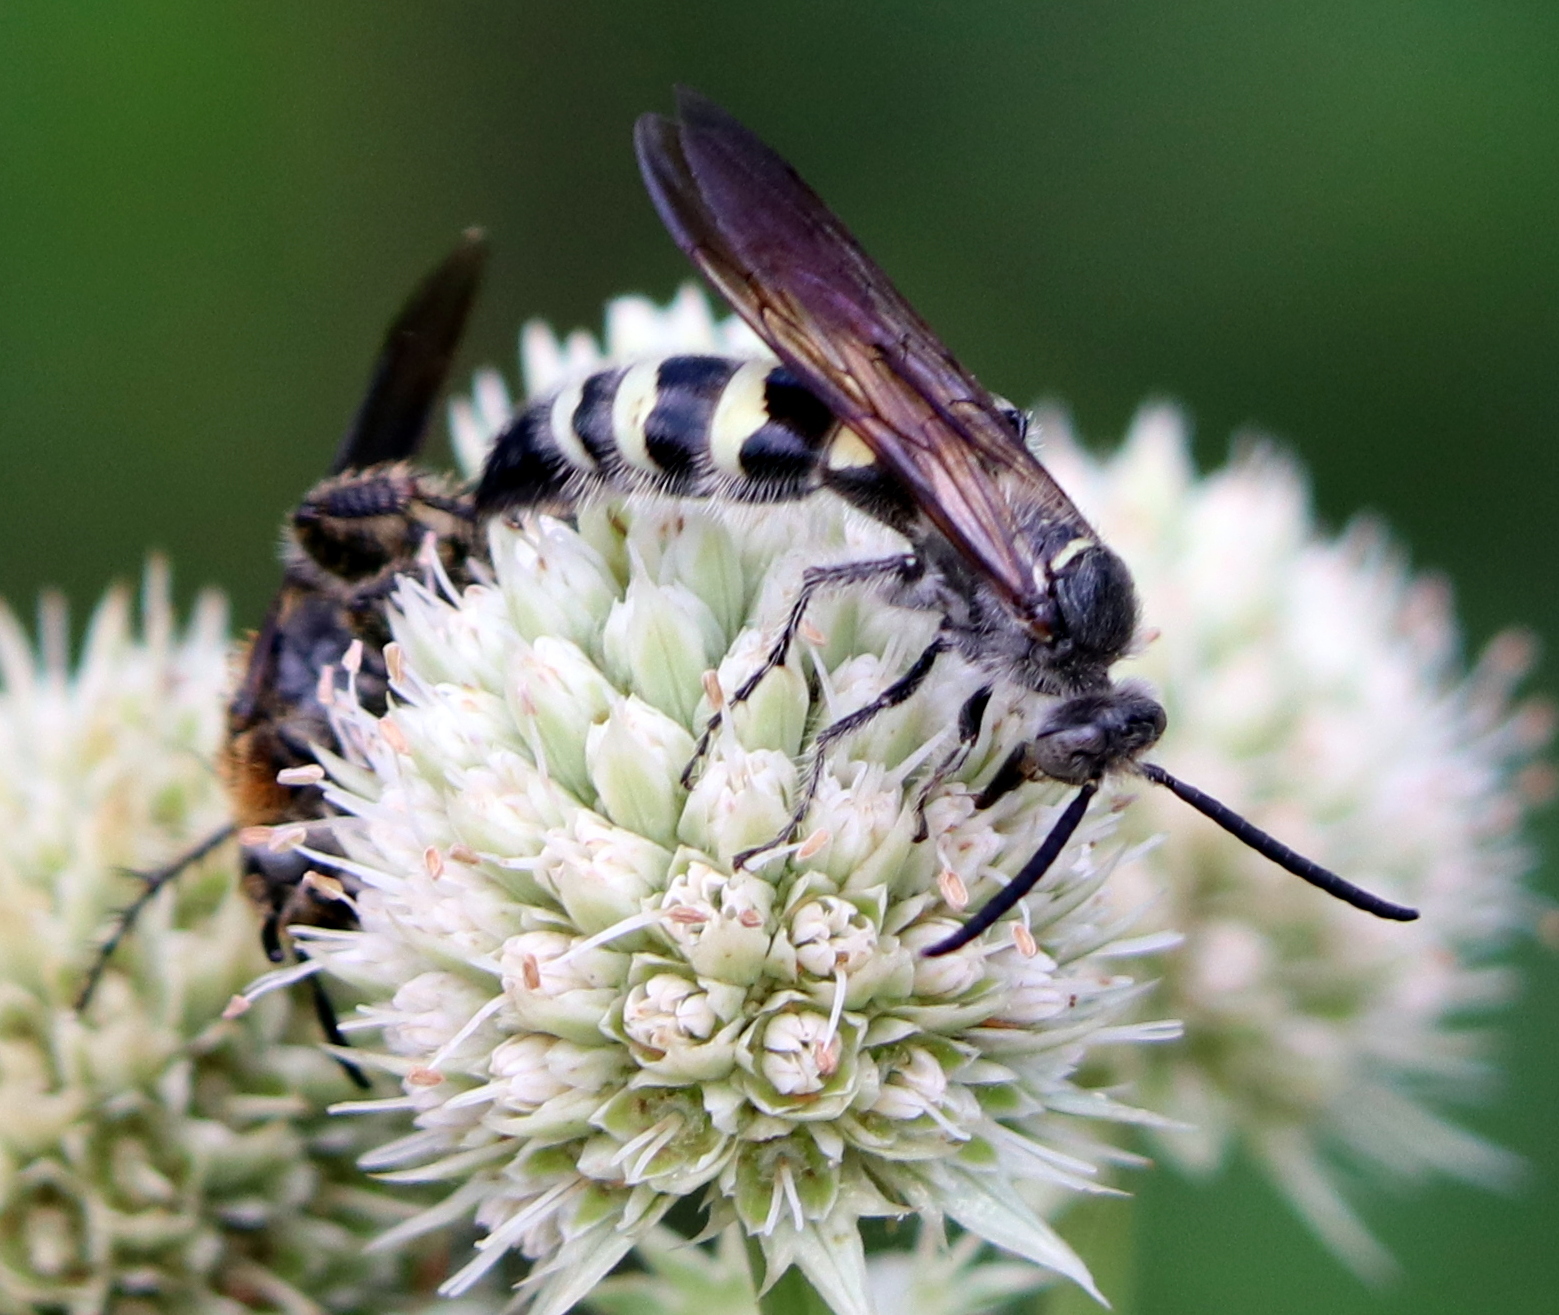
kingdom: Animalia
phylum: Arthropoda
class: Insecta
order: Hymenoptera
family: Scoliidae
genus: Dielis
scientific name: Dielis
